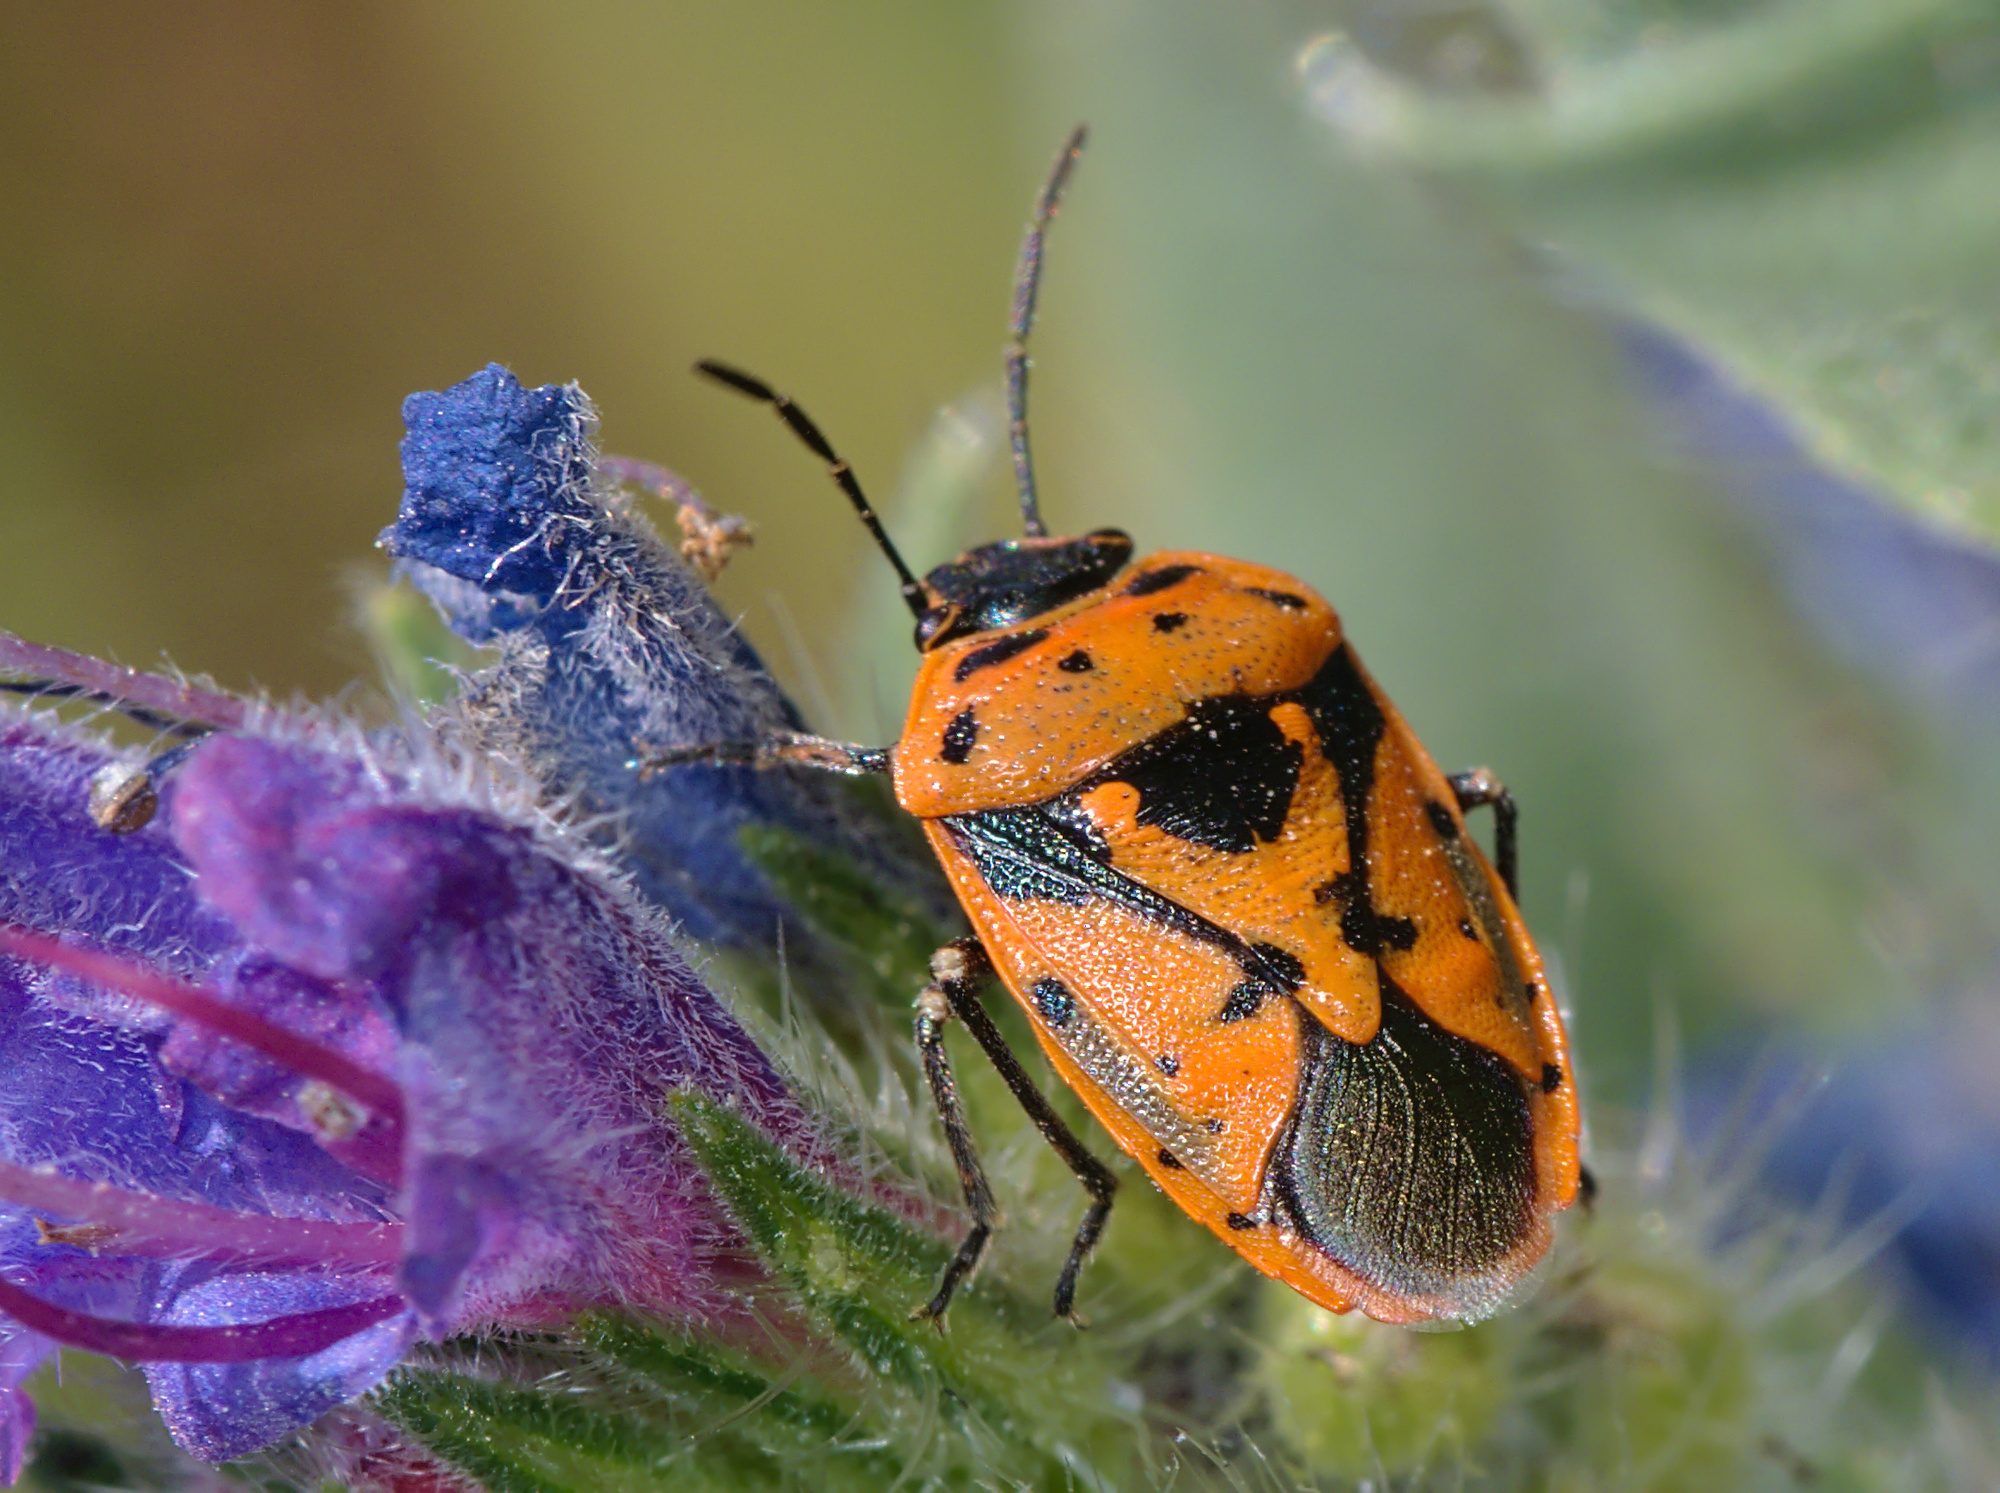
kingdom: Animalia
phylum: Arthropoda
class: Insecta
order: Hemiptera
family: Pentatomidae
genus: Eurydema
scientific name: Eurydema ornata
